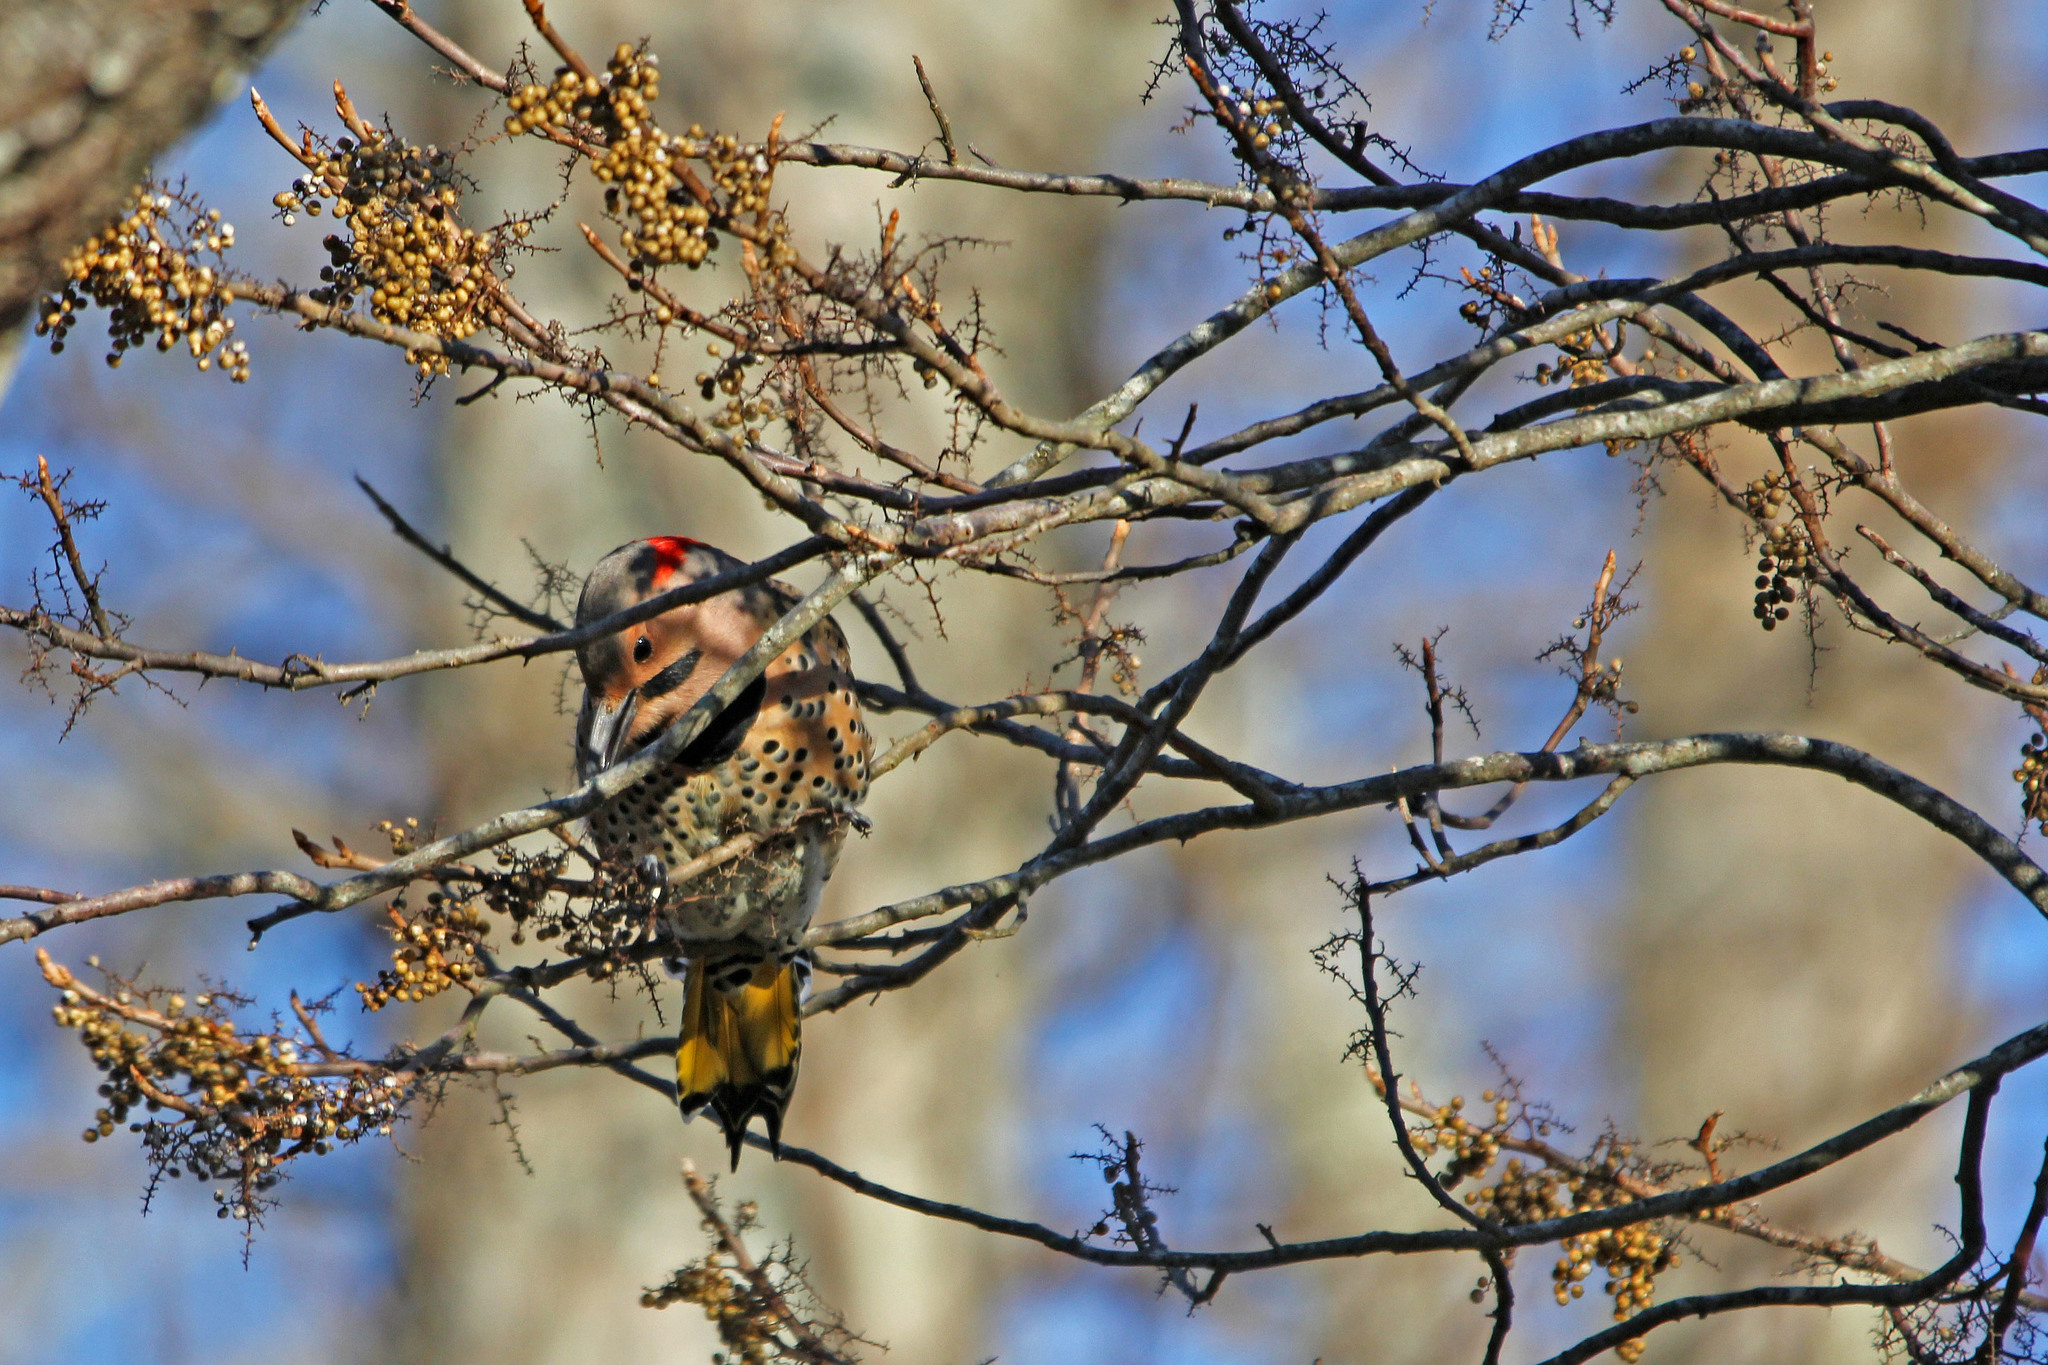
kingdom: Animalia
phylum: Chordata
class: Aves
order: Piciformes
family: Picidae
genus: Colaptes
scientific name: Colaptes auratus
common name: Northern flicker
